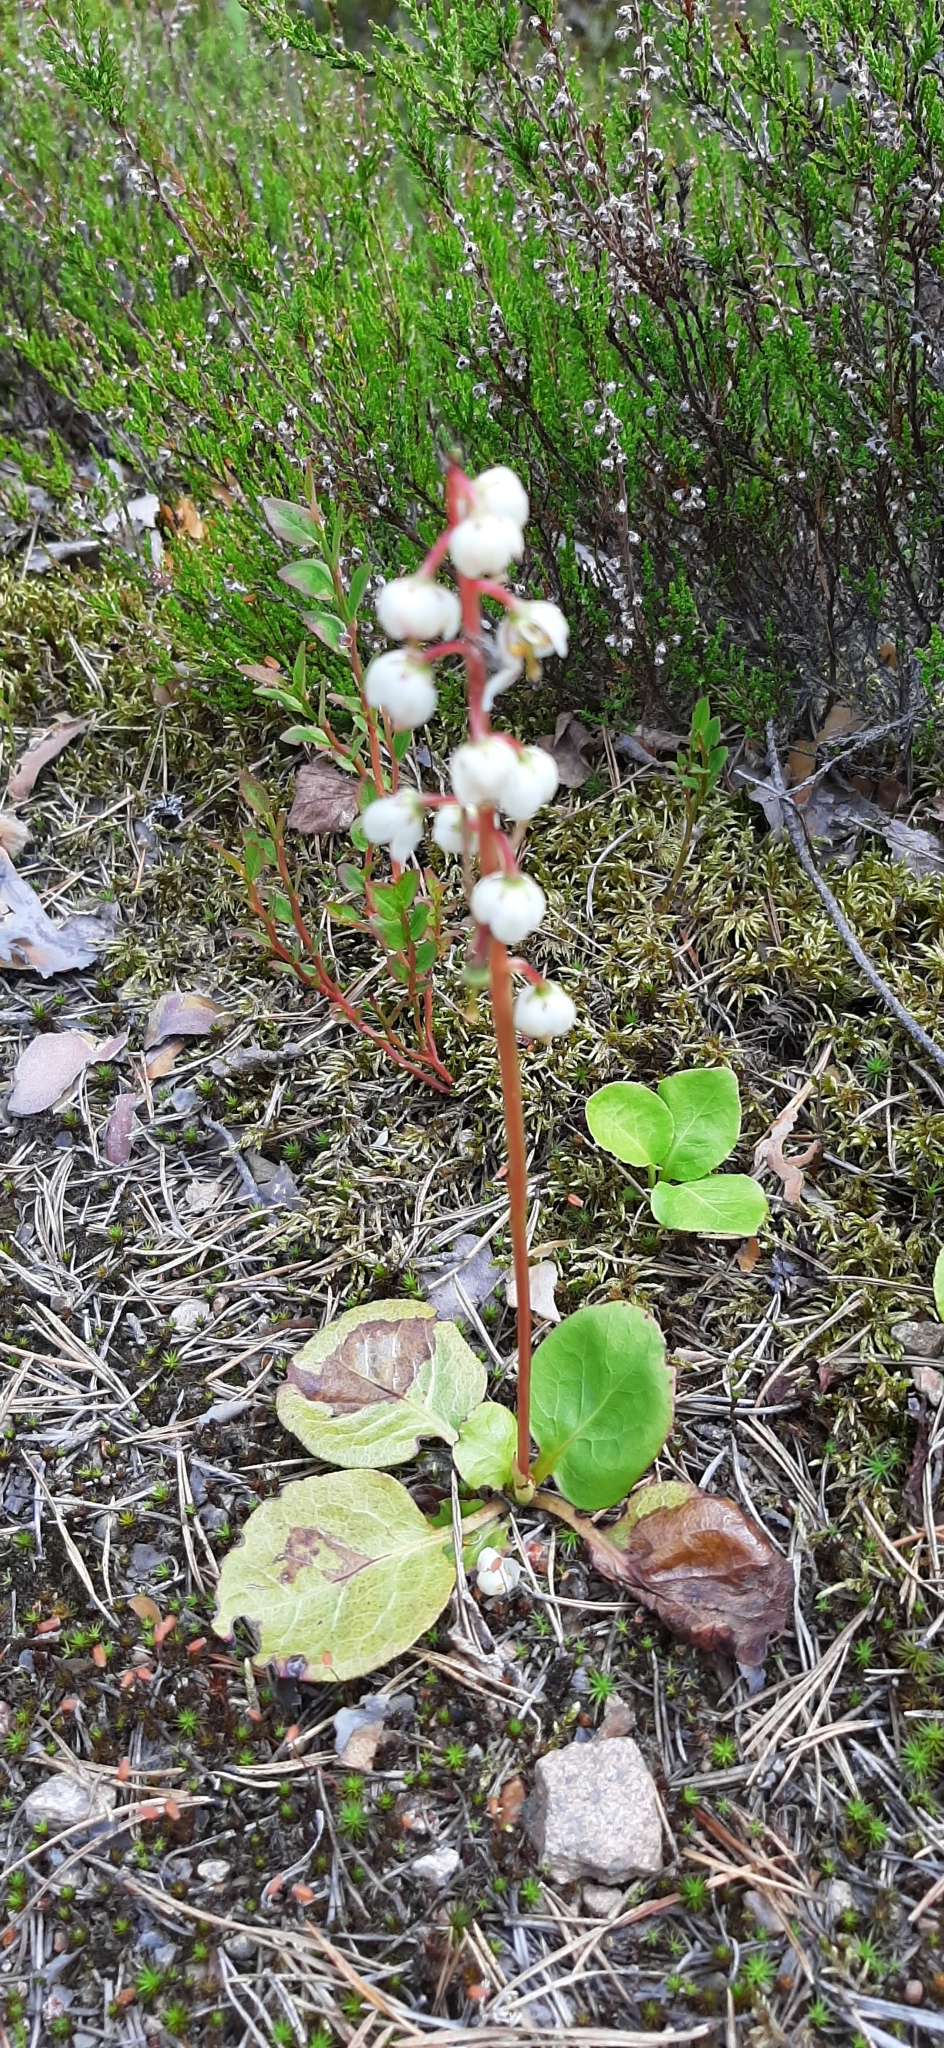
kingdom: Plantae
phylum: Tracheophyta
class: Magnoliopsida
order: Ericales
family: Ericaceae
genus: Pyrola
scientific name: Pyrola media
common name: Intermediate wintergreen
